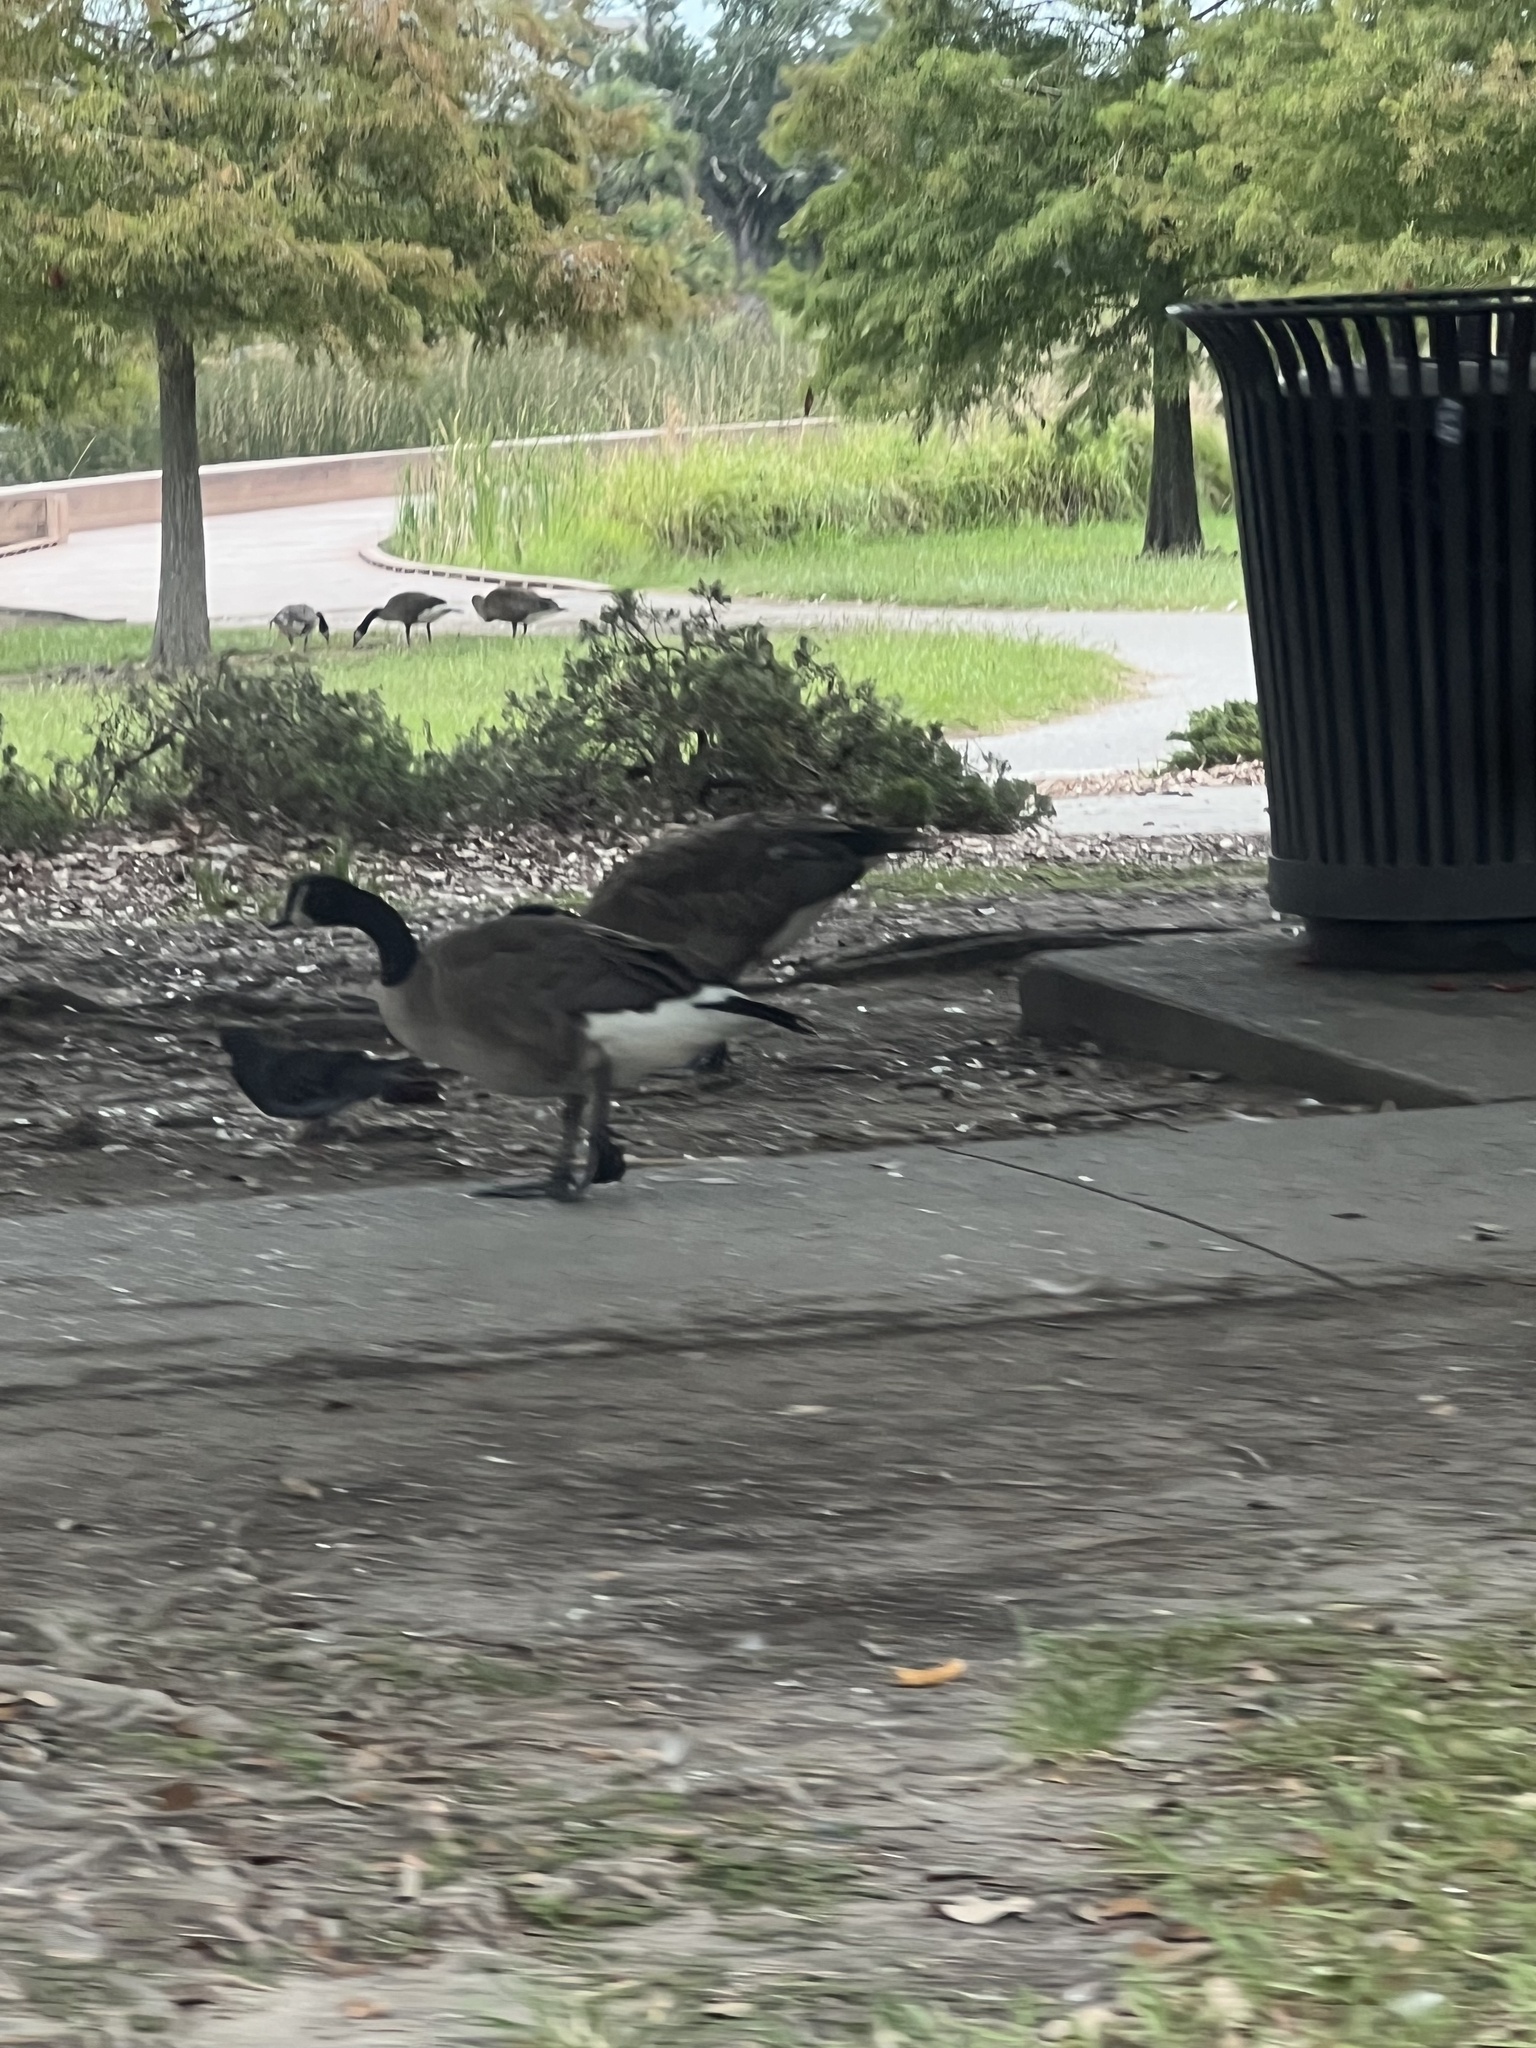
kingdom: Animalia
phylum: Chordata
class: Aves
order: Anseriformes
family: Anatidae
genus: Branta
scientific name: Branta canadensis
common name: Canada goose
